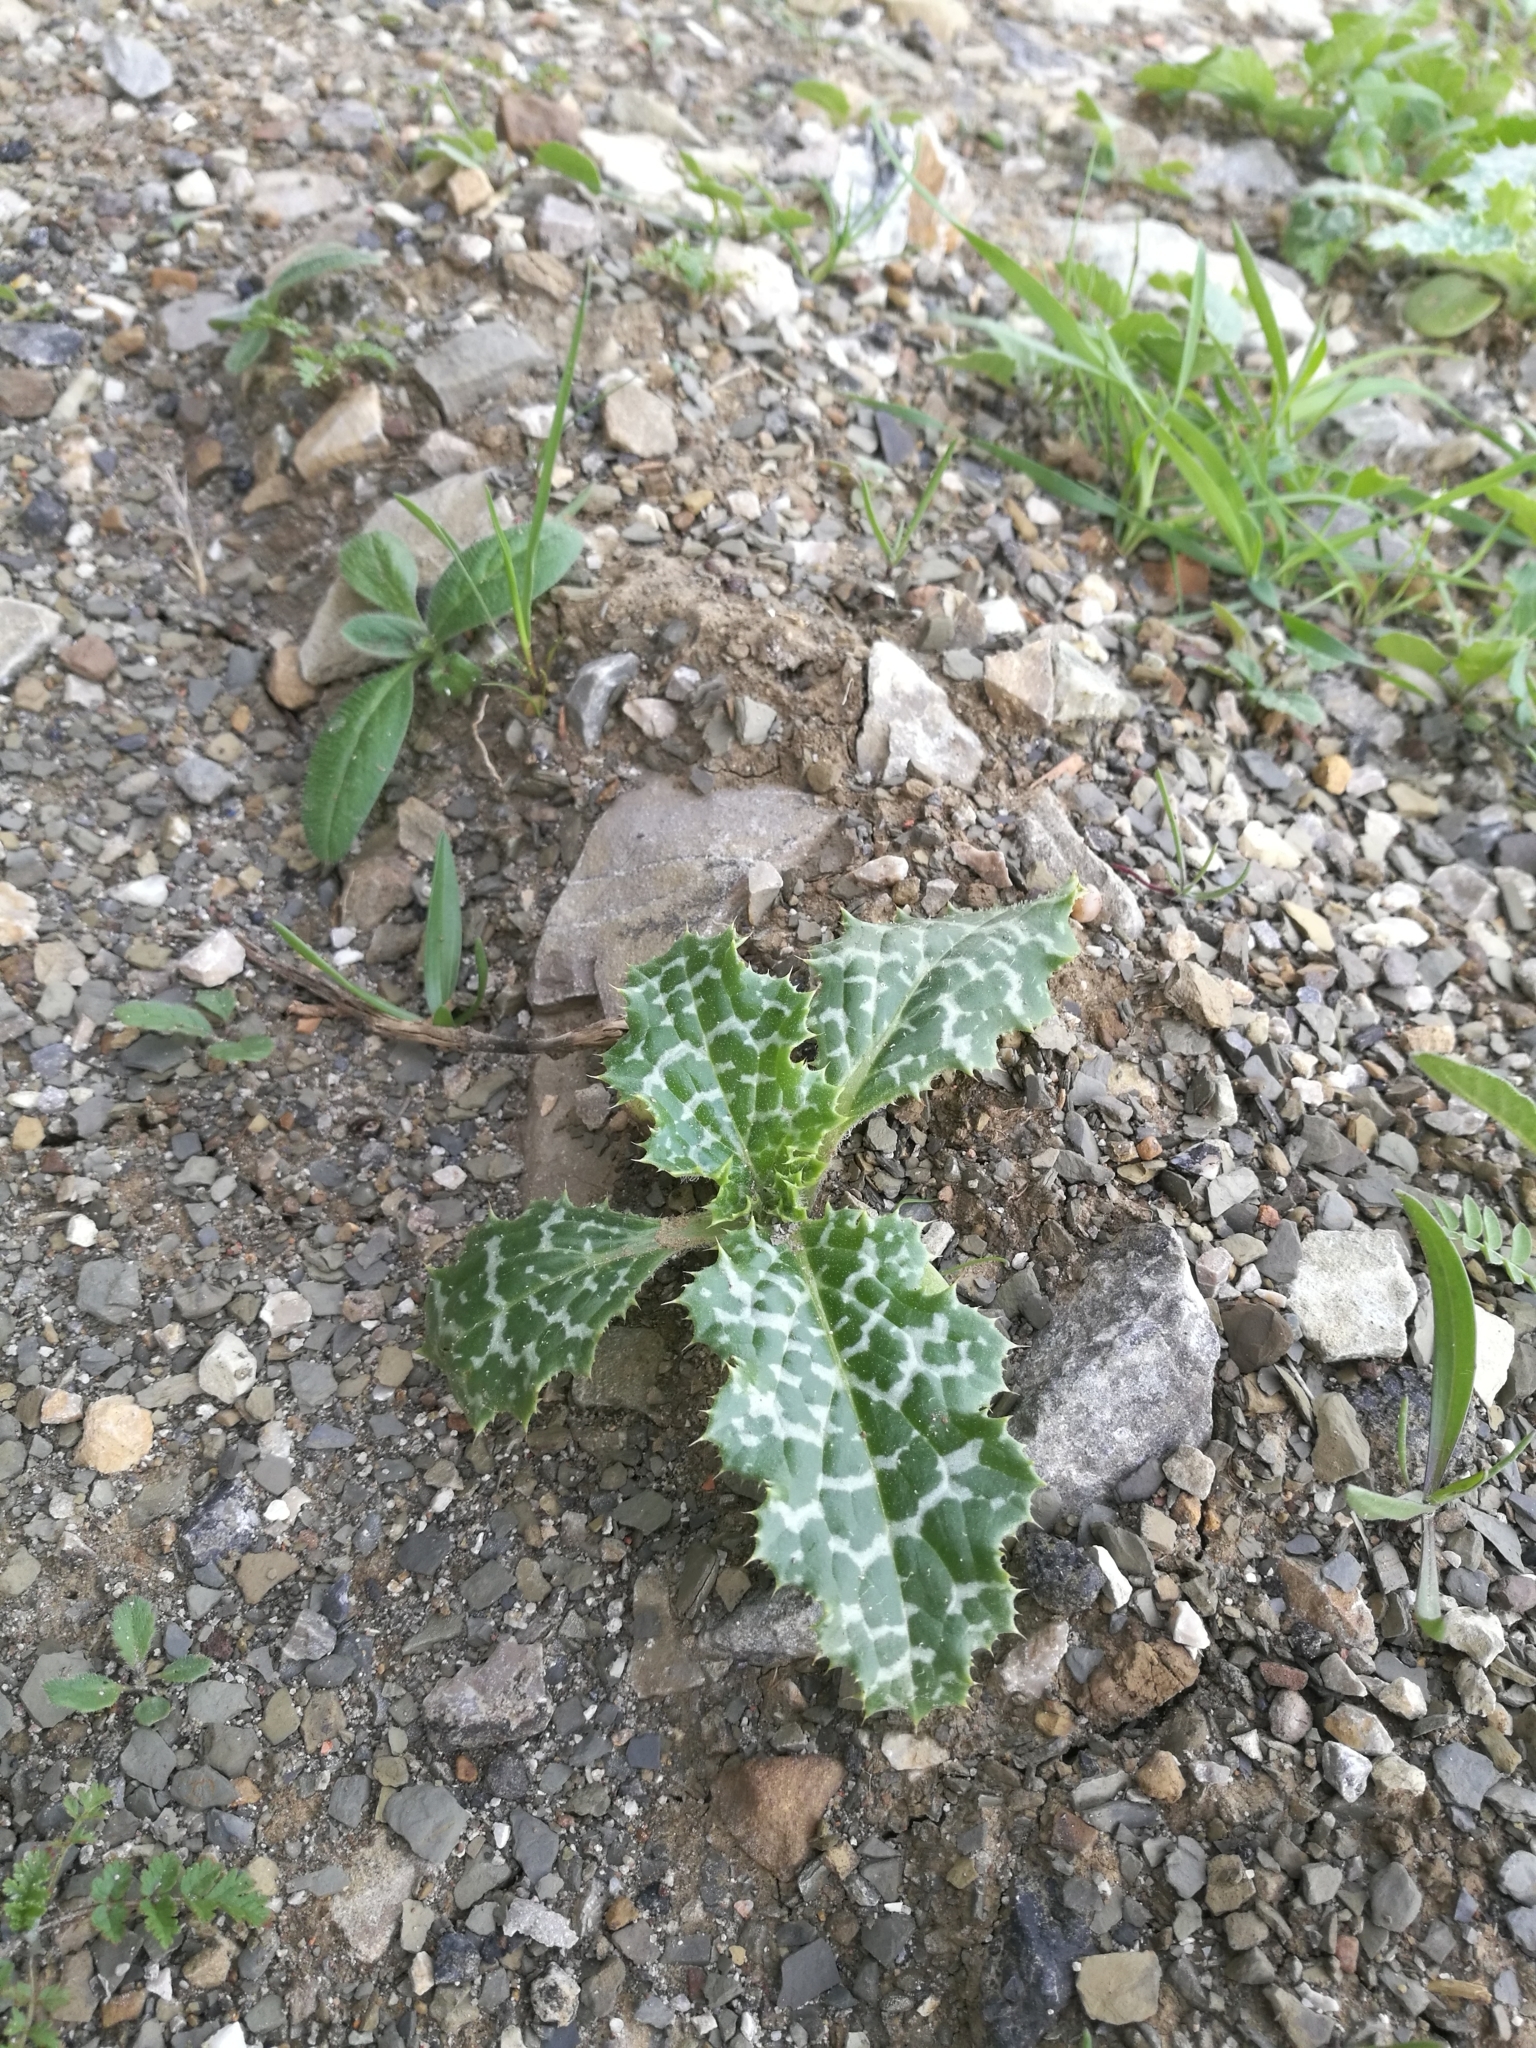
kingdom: Plantae
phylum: Tracheophyta
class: Magnoliopsida
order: Asterales
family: Asteraceae
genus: Silybum
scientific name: Silybum marianum
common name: Milk thistle
